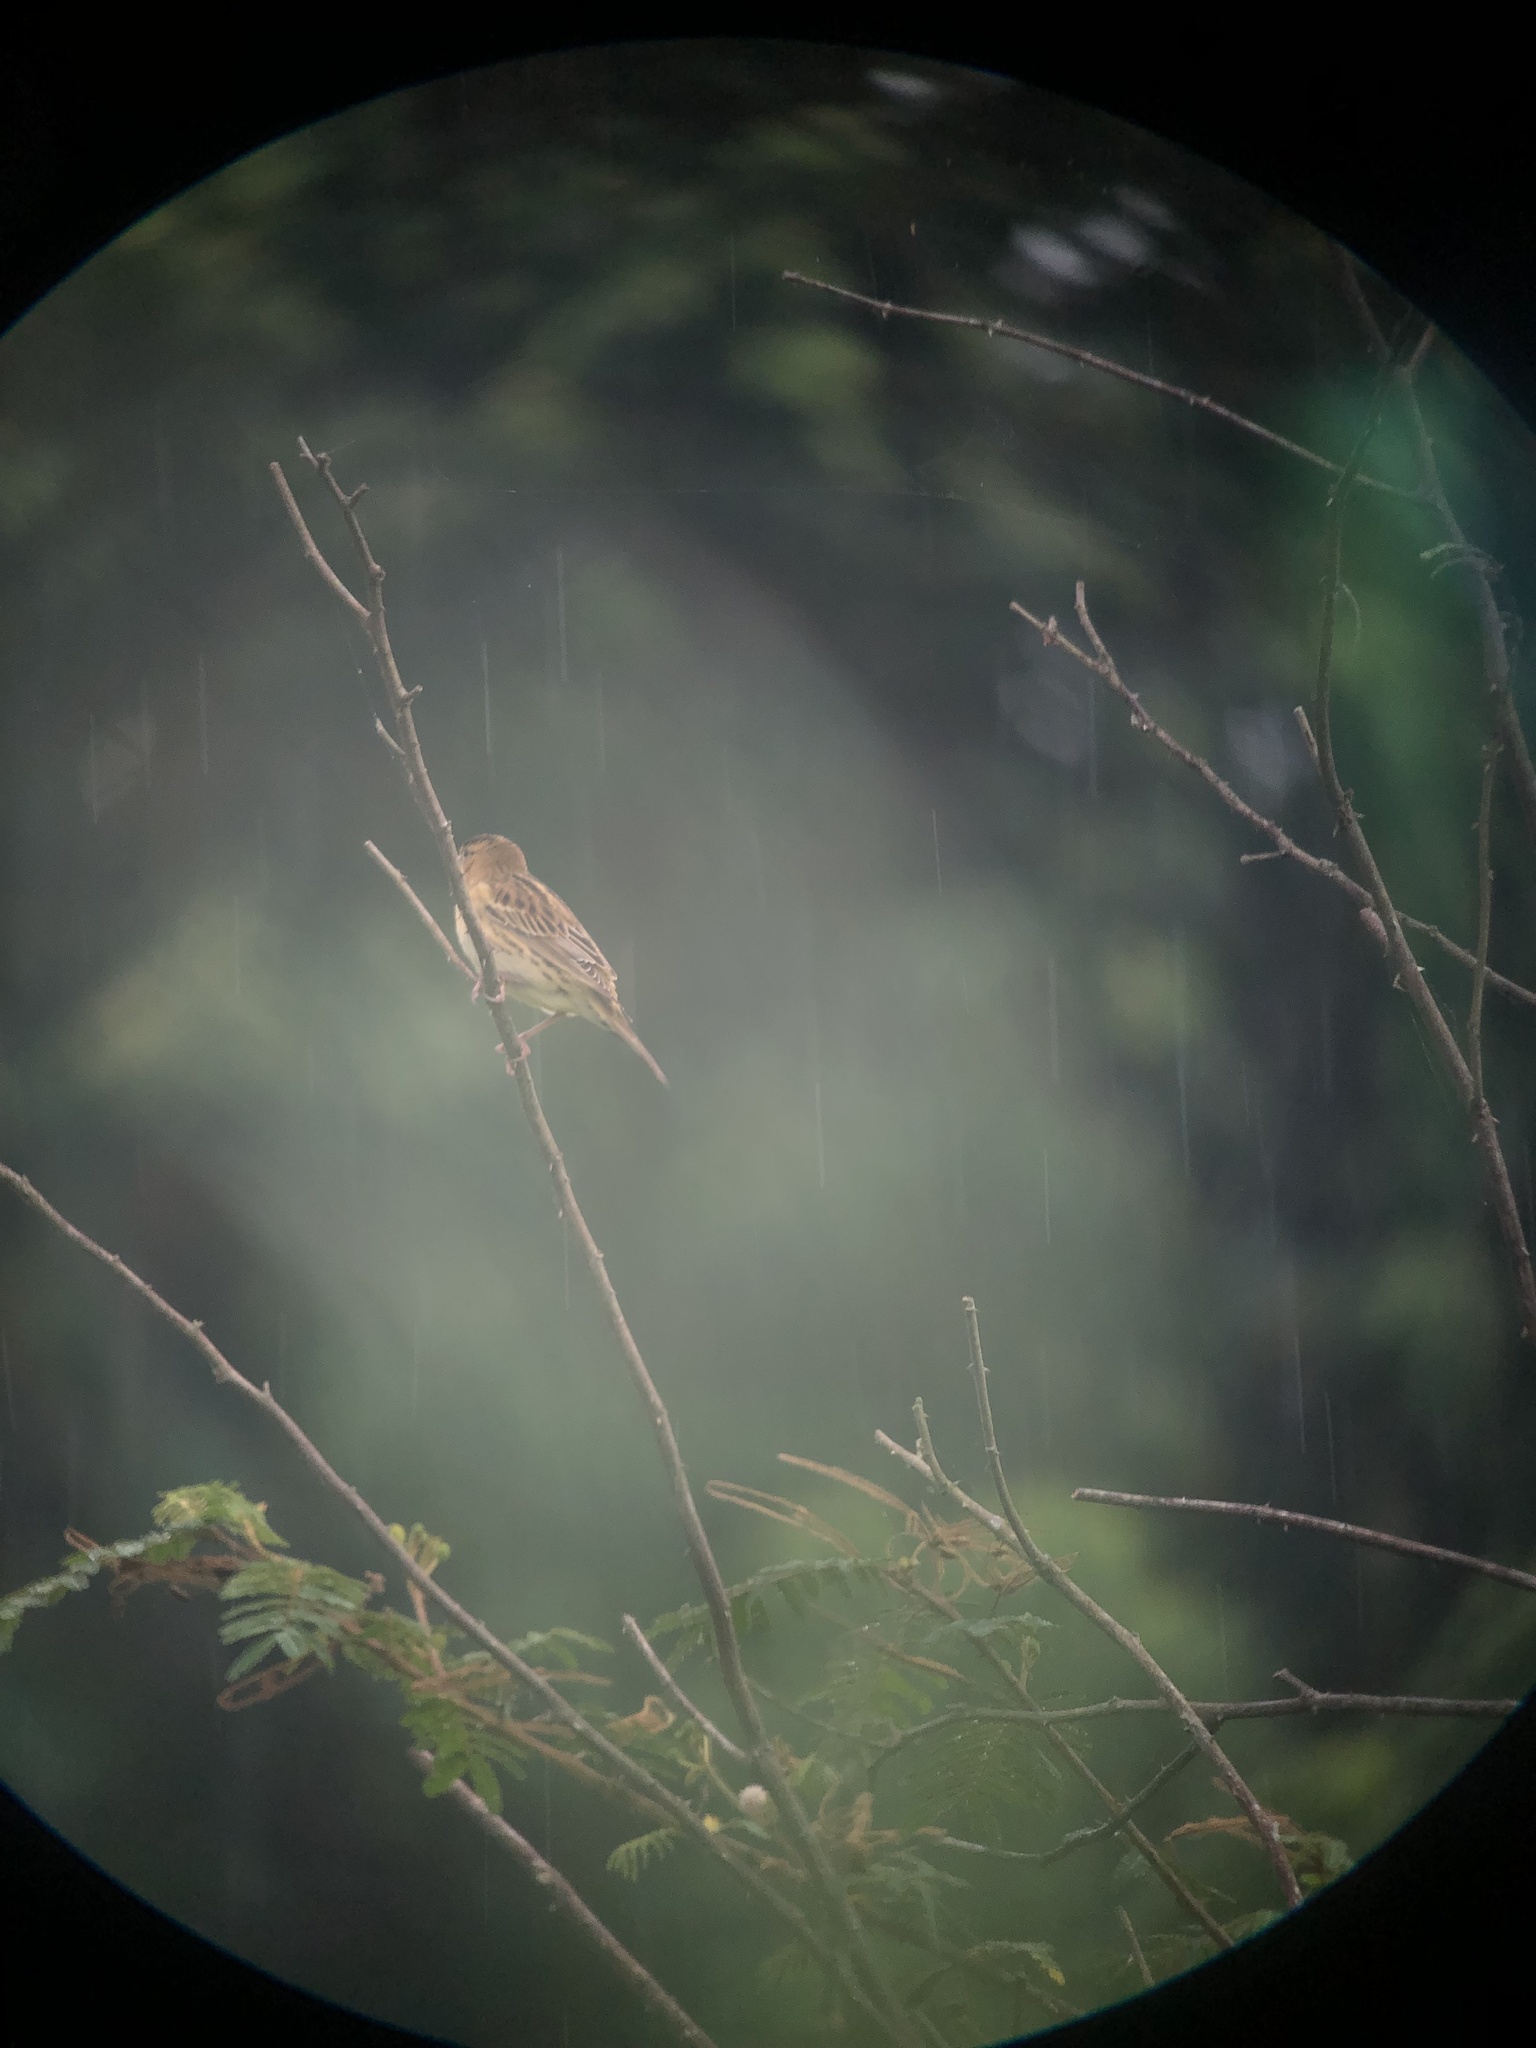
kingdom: Animalia
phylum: Chordata
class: Aves
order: Passeriformes
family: Icteridae
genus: Dolichonyx
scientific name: Dolichonyx oryzivorus
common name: Bobolink
